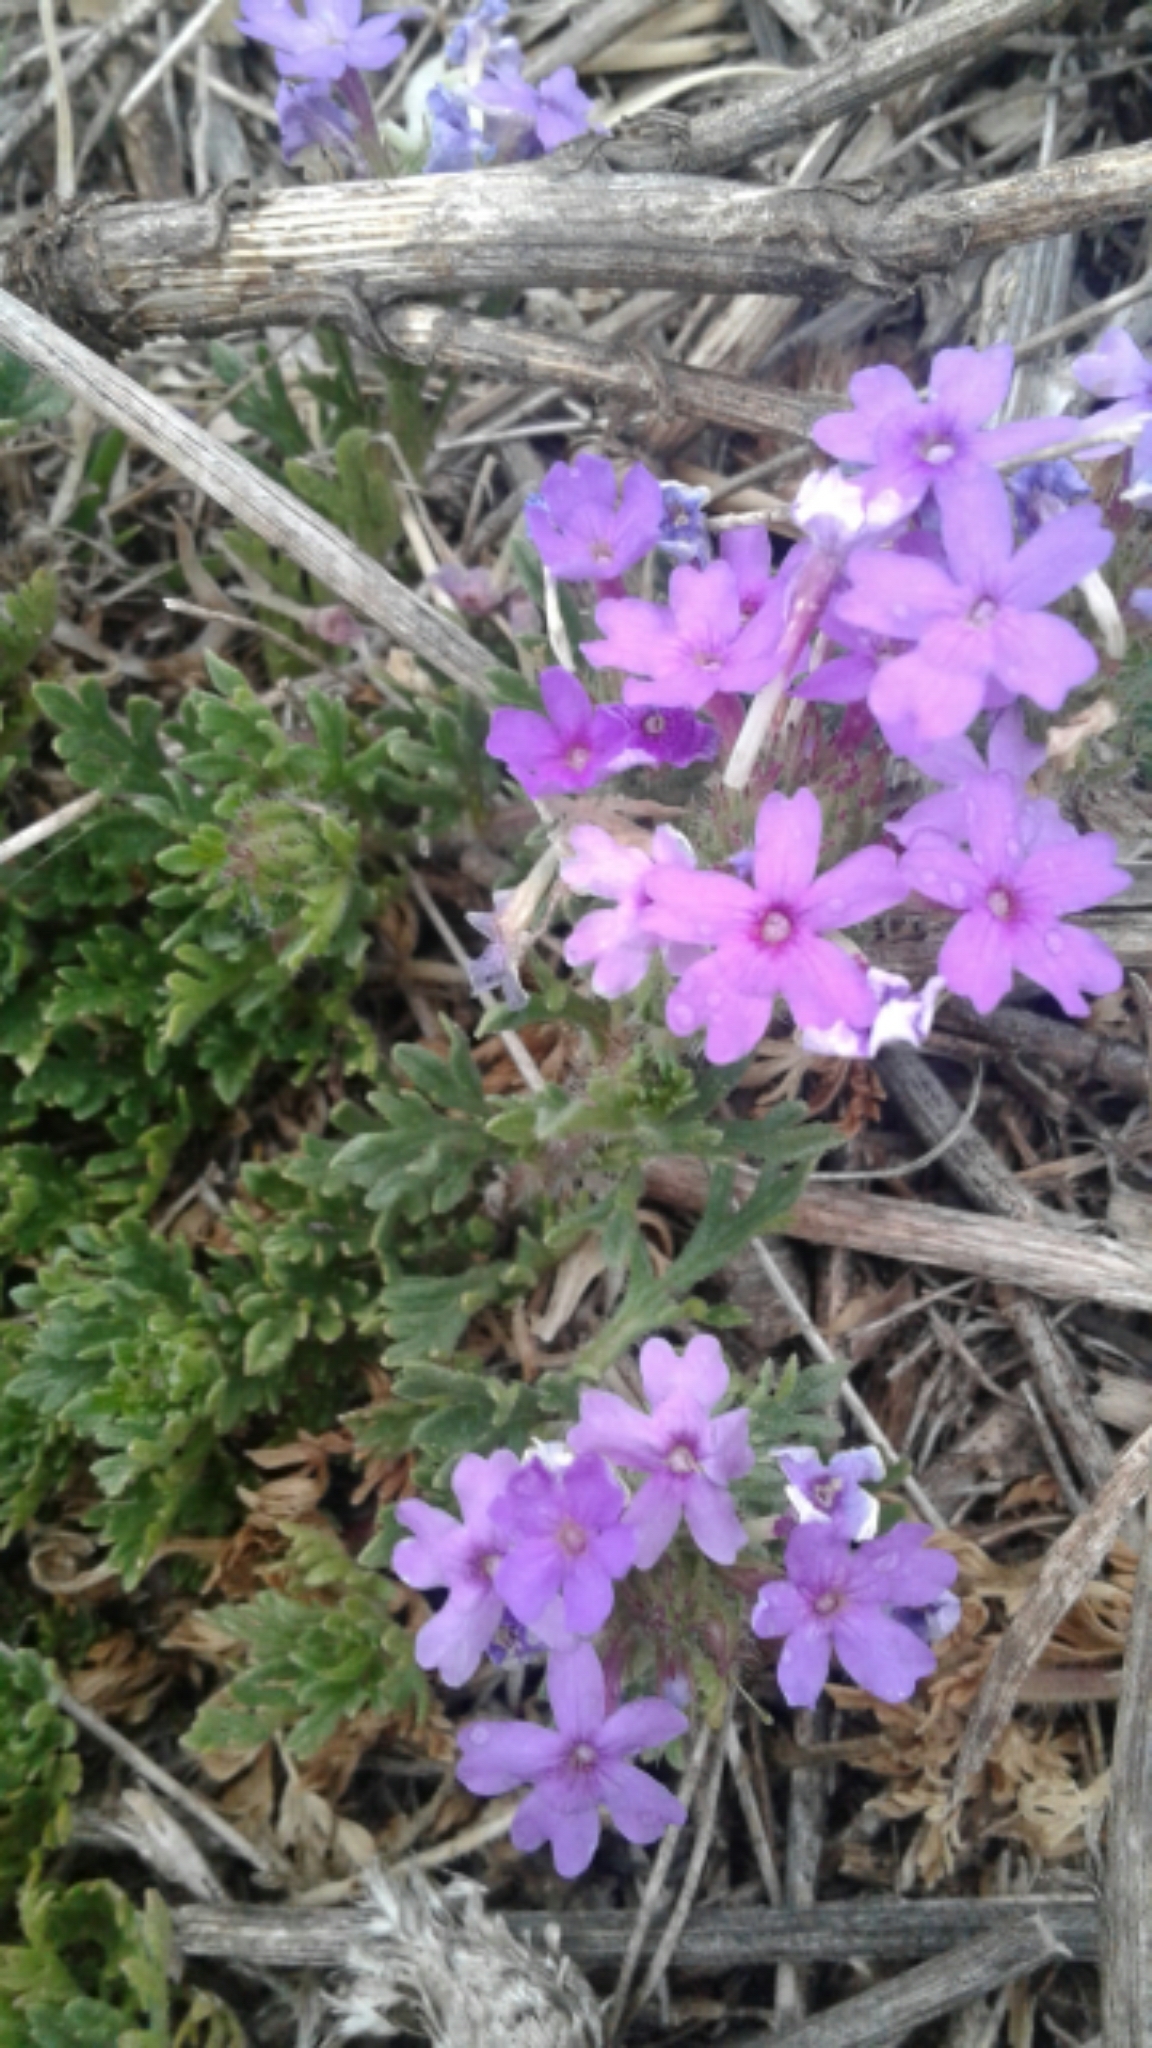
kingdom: Plantae
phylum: Tracheophyta
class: Magnoliopsida
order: Lamiales
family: Verbenaceae
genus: Verbena
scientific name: Verbena bipinnatifida
